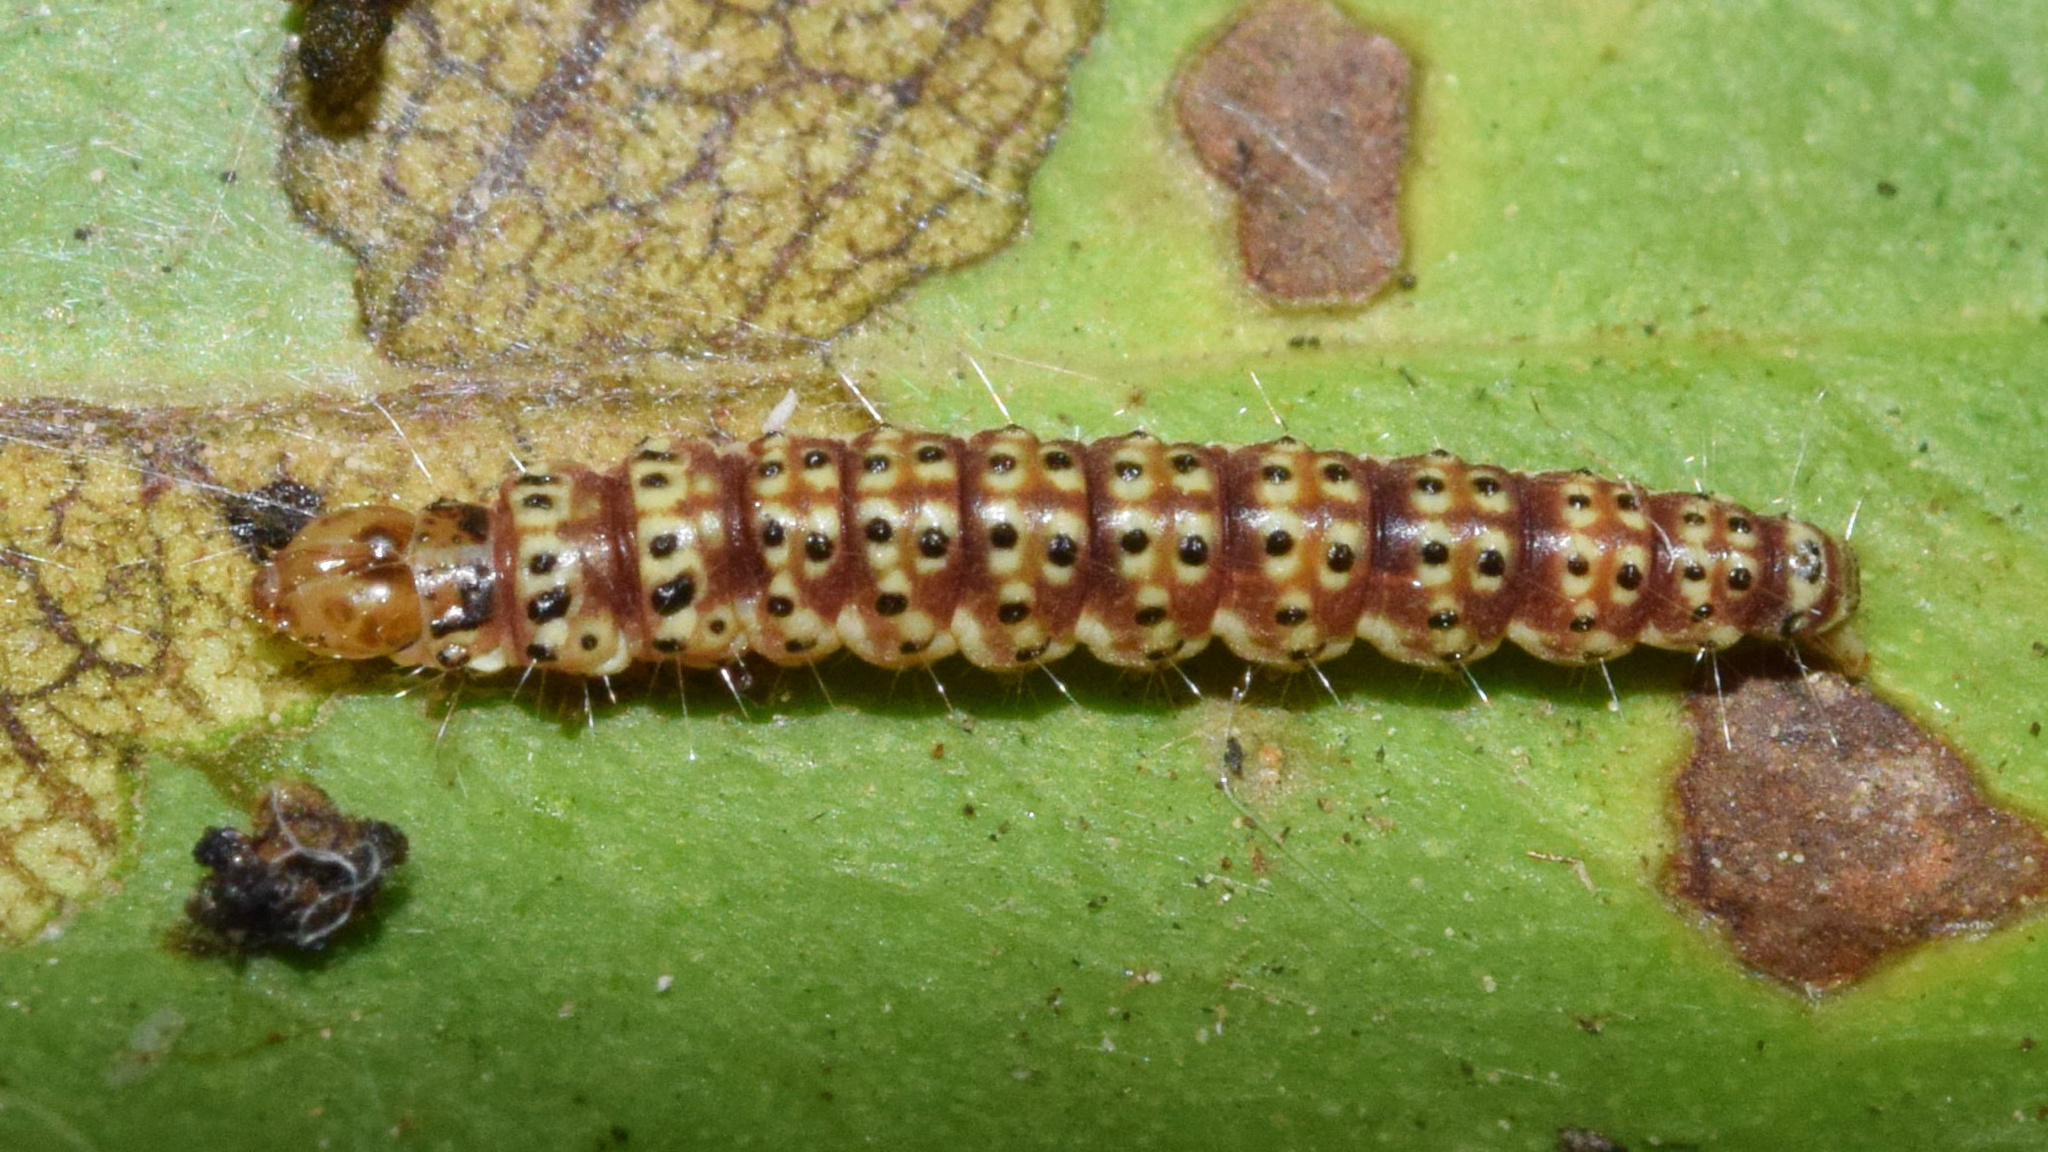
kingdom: Animalia
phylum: Arthropoda
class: Insecta
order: Lepidoptera
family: Choreutidae
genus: Choreutis
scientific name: Choreutis aegyptiaca
